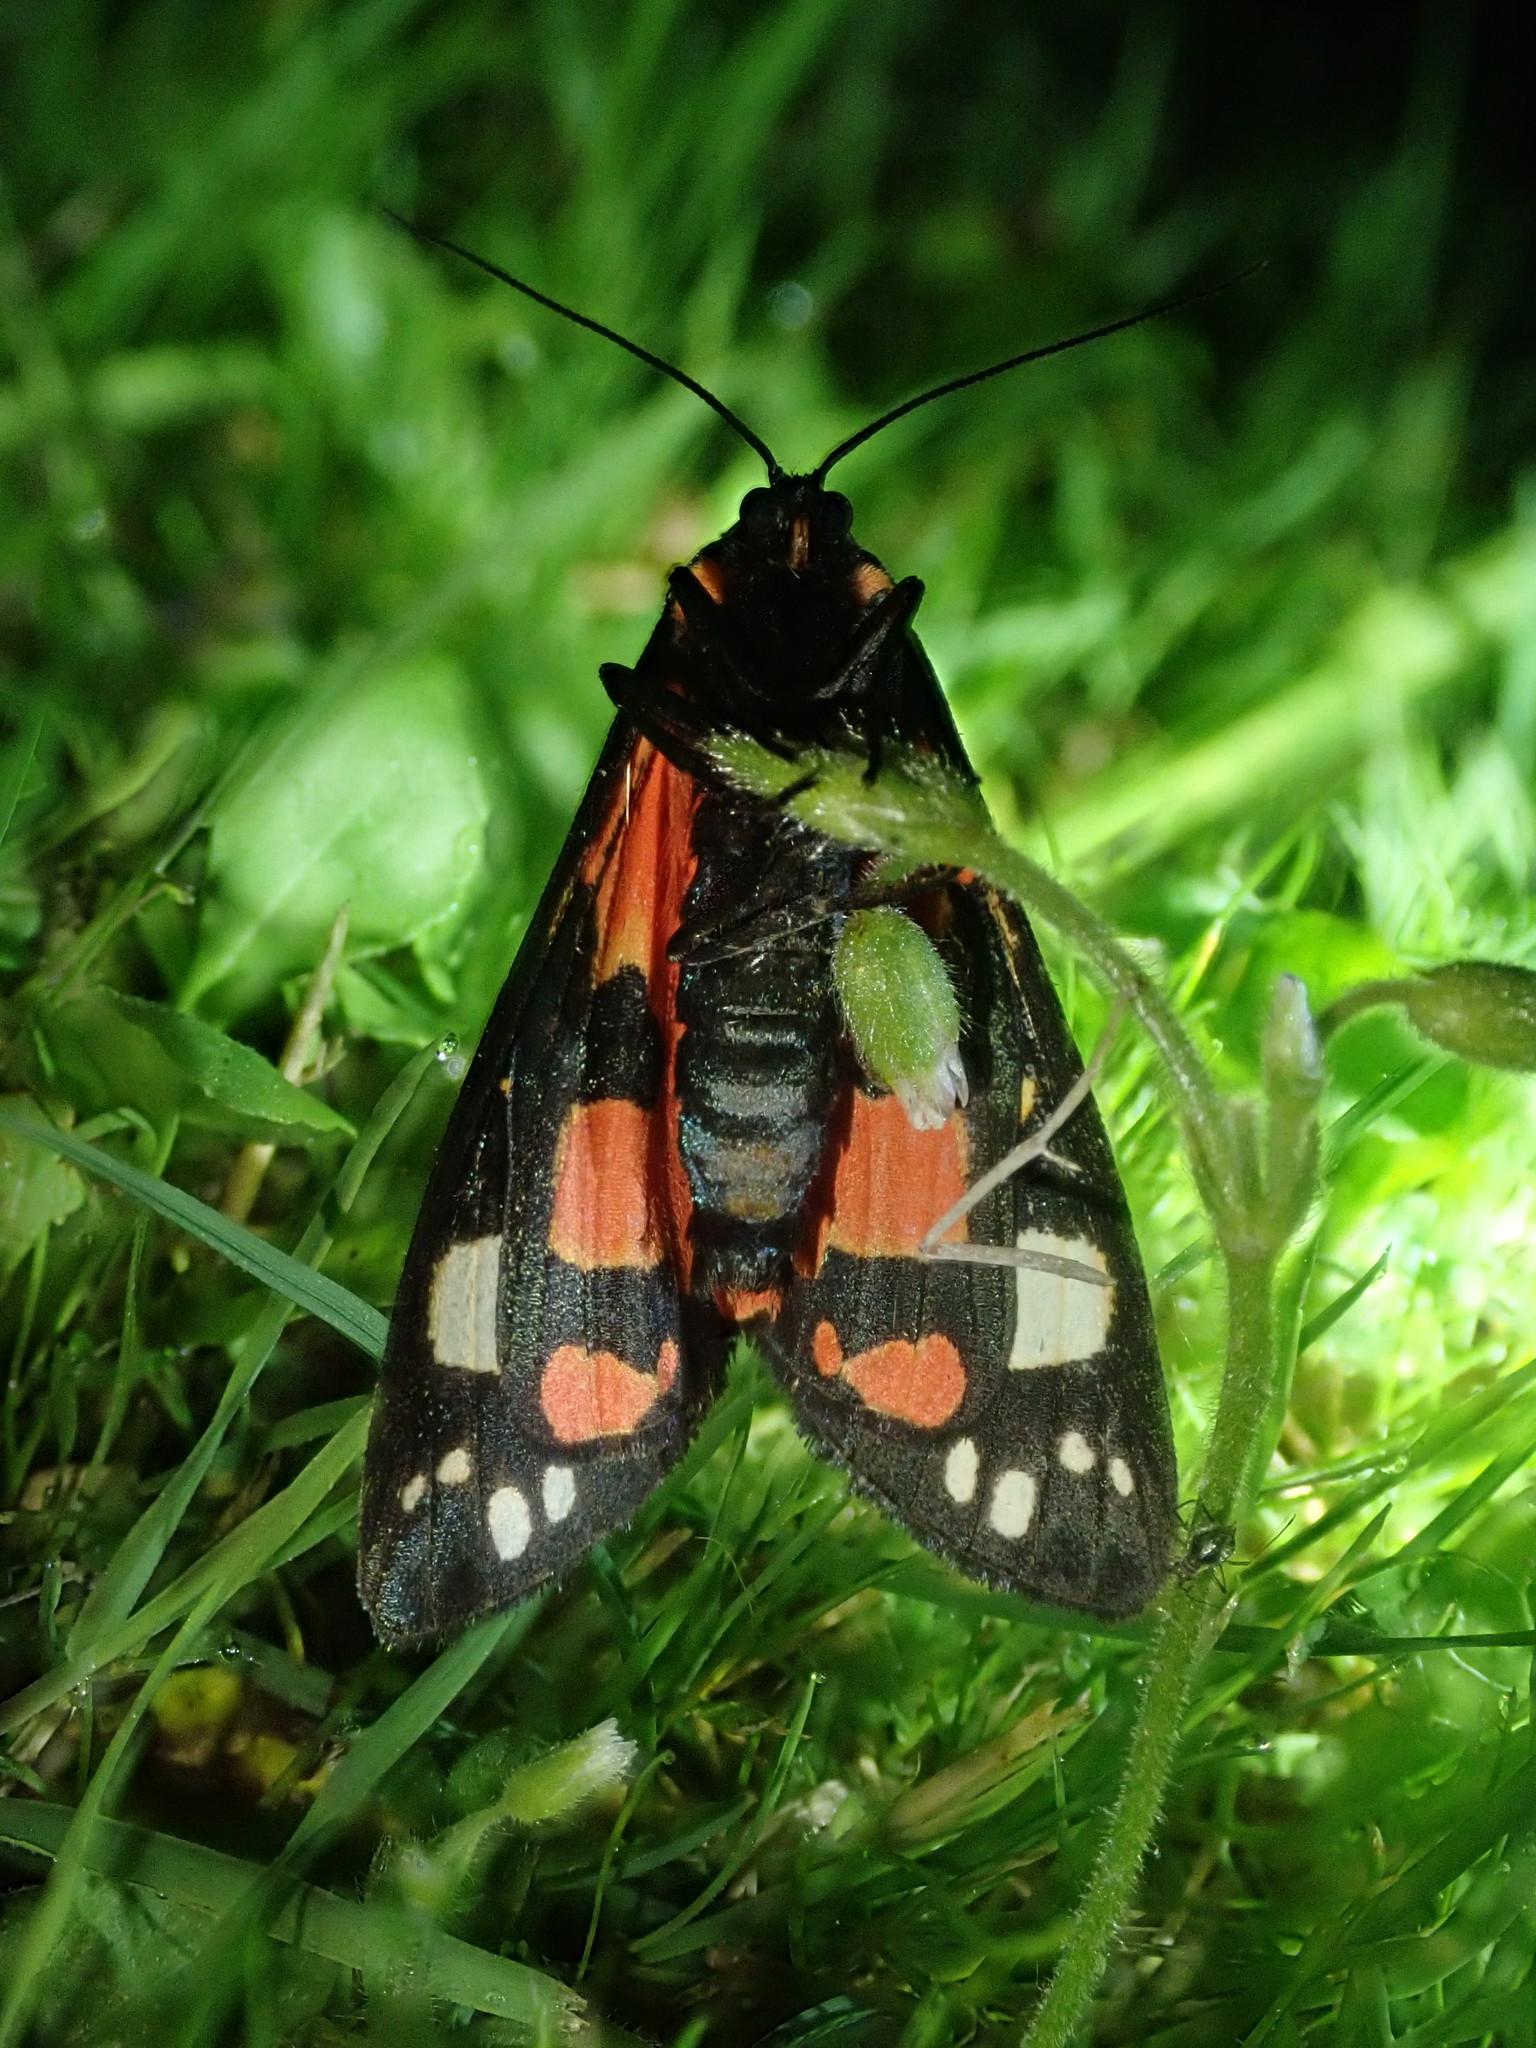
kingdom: Animalia
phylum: Arthropoda
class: Insecta
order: Lepidoptera
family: Erebidae
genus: Callimorpha
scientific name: Callimorpha dominula
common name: Scarlet tiger
